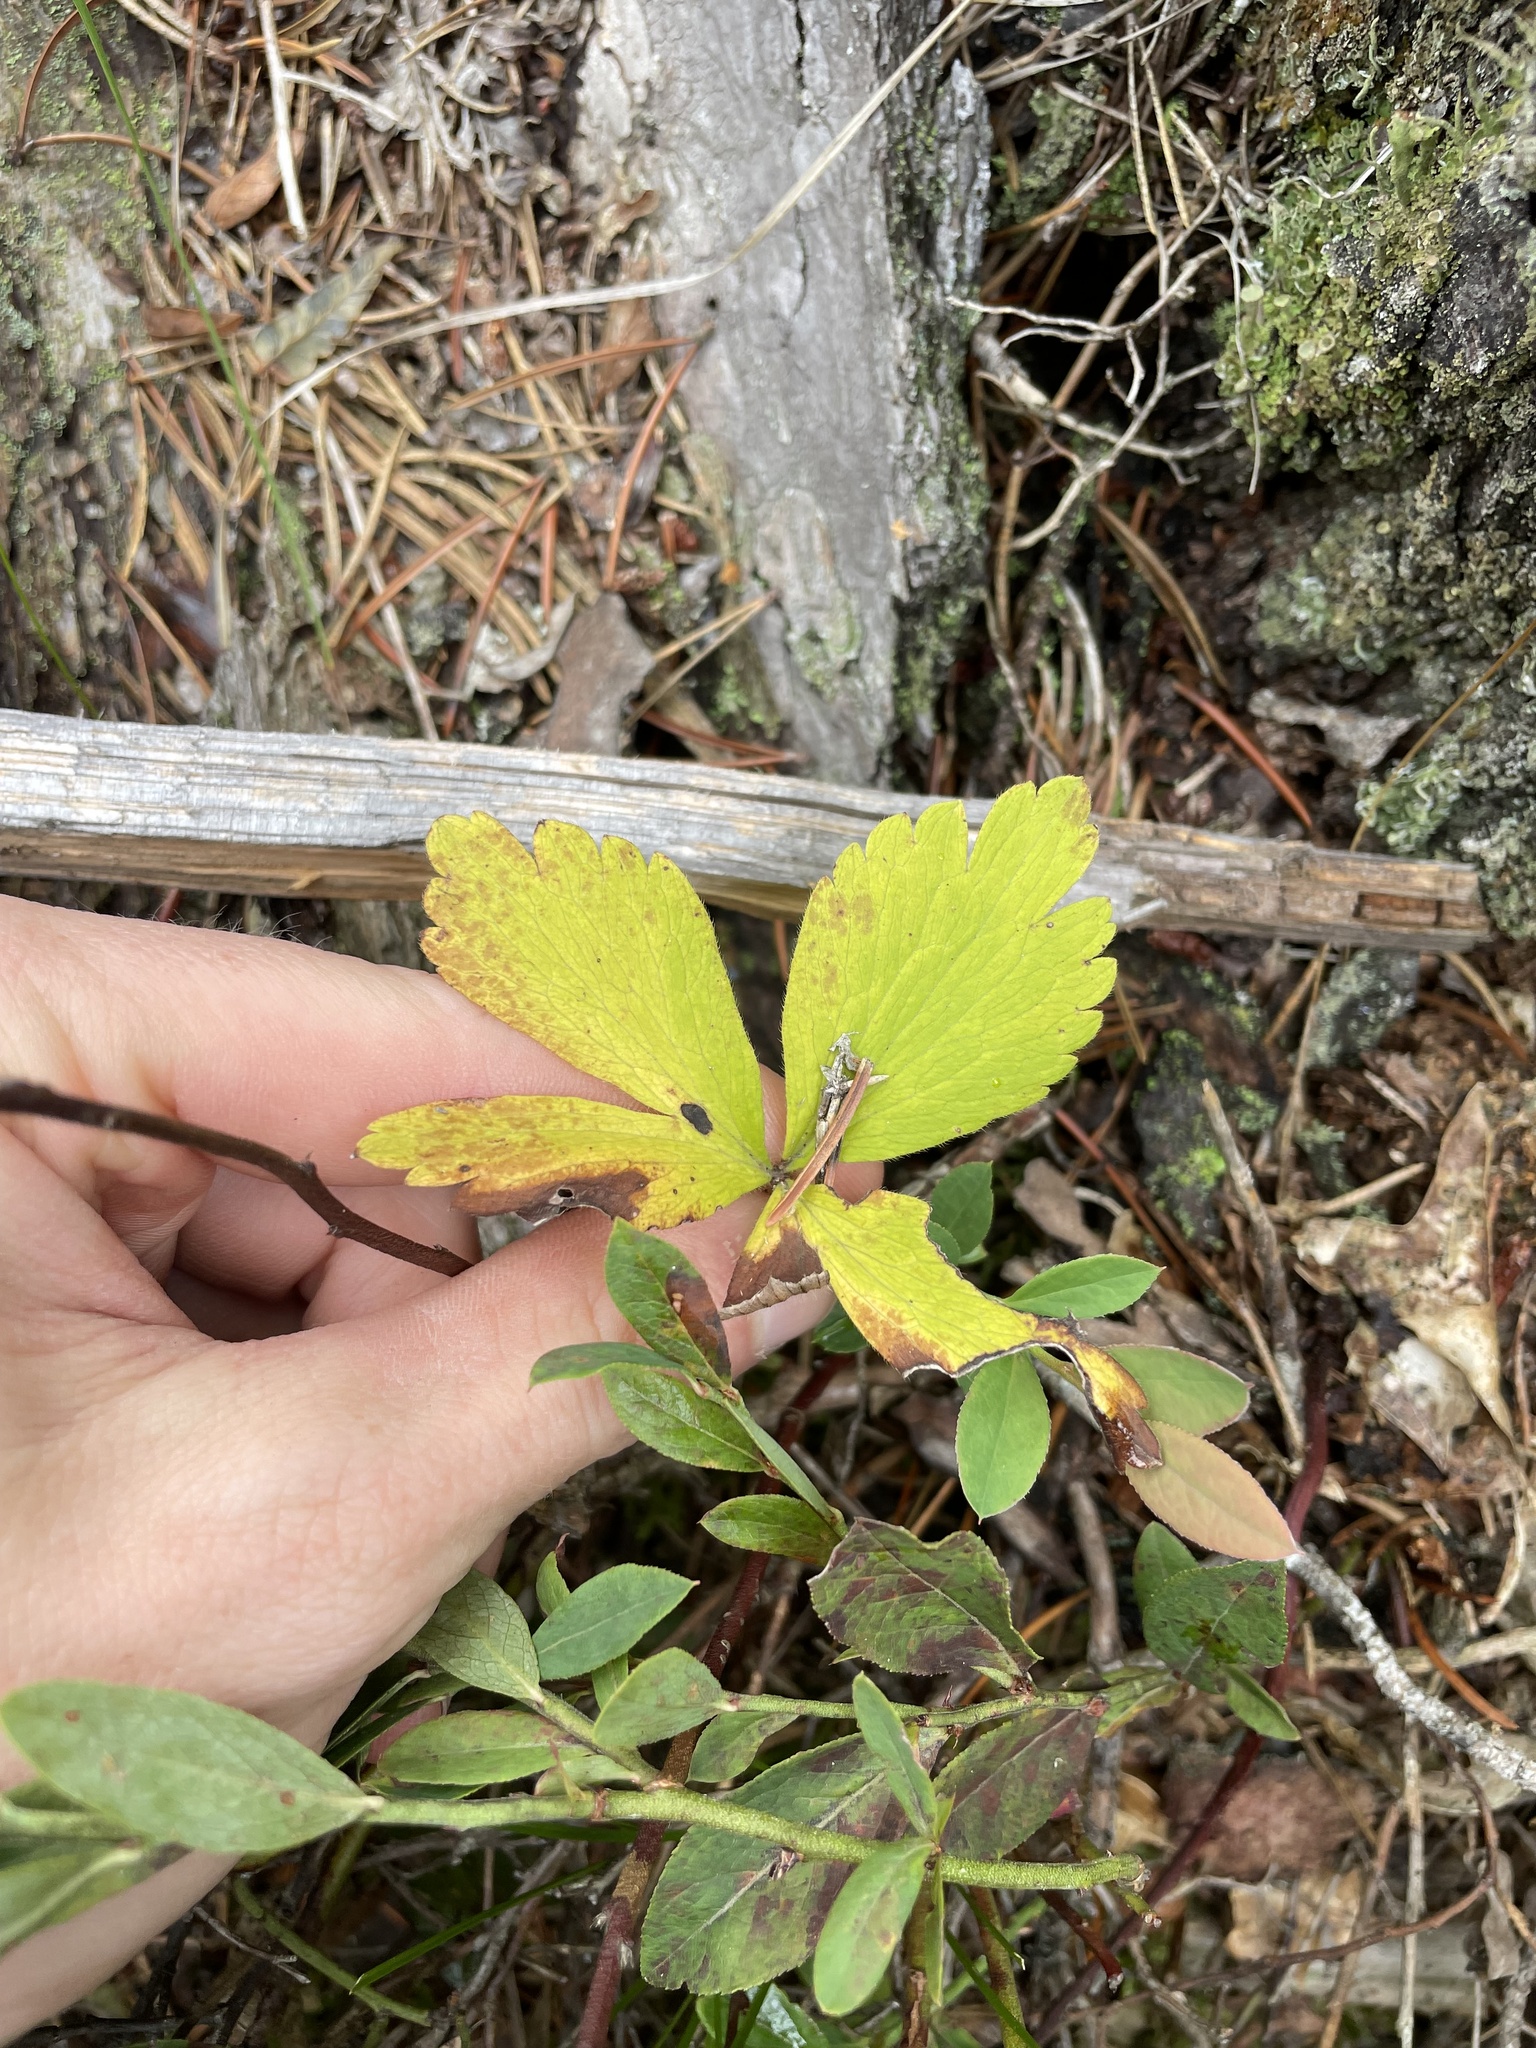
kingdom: Plantae
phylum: Tracheophyta
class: Magnoliopsida
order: Ranunculales
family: Ranunculaceae
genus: Anemone
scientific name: Anemone quinquefolia
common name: Wood anemone
